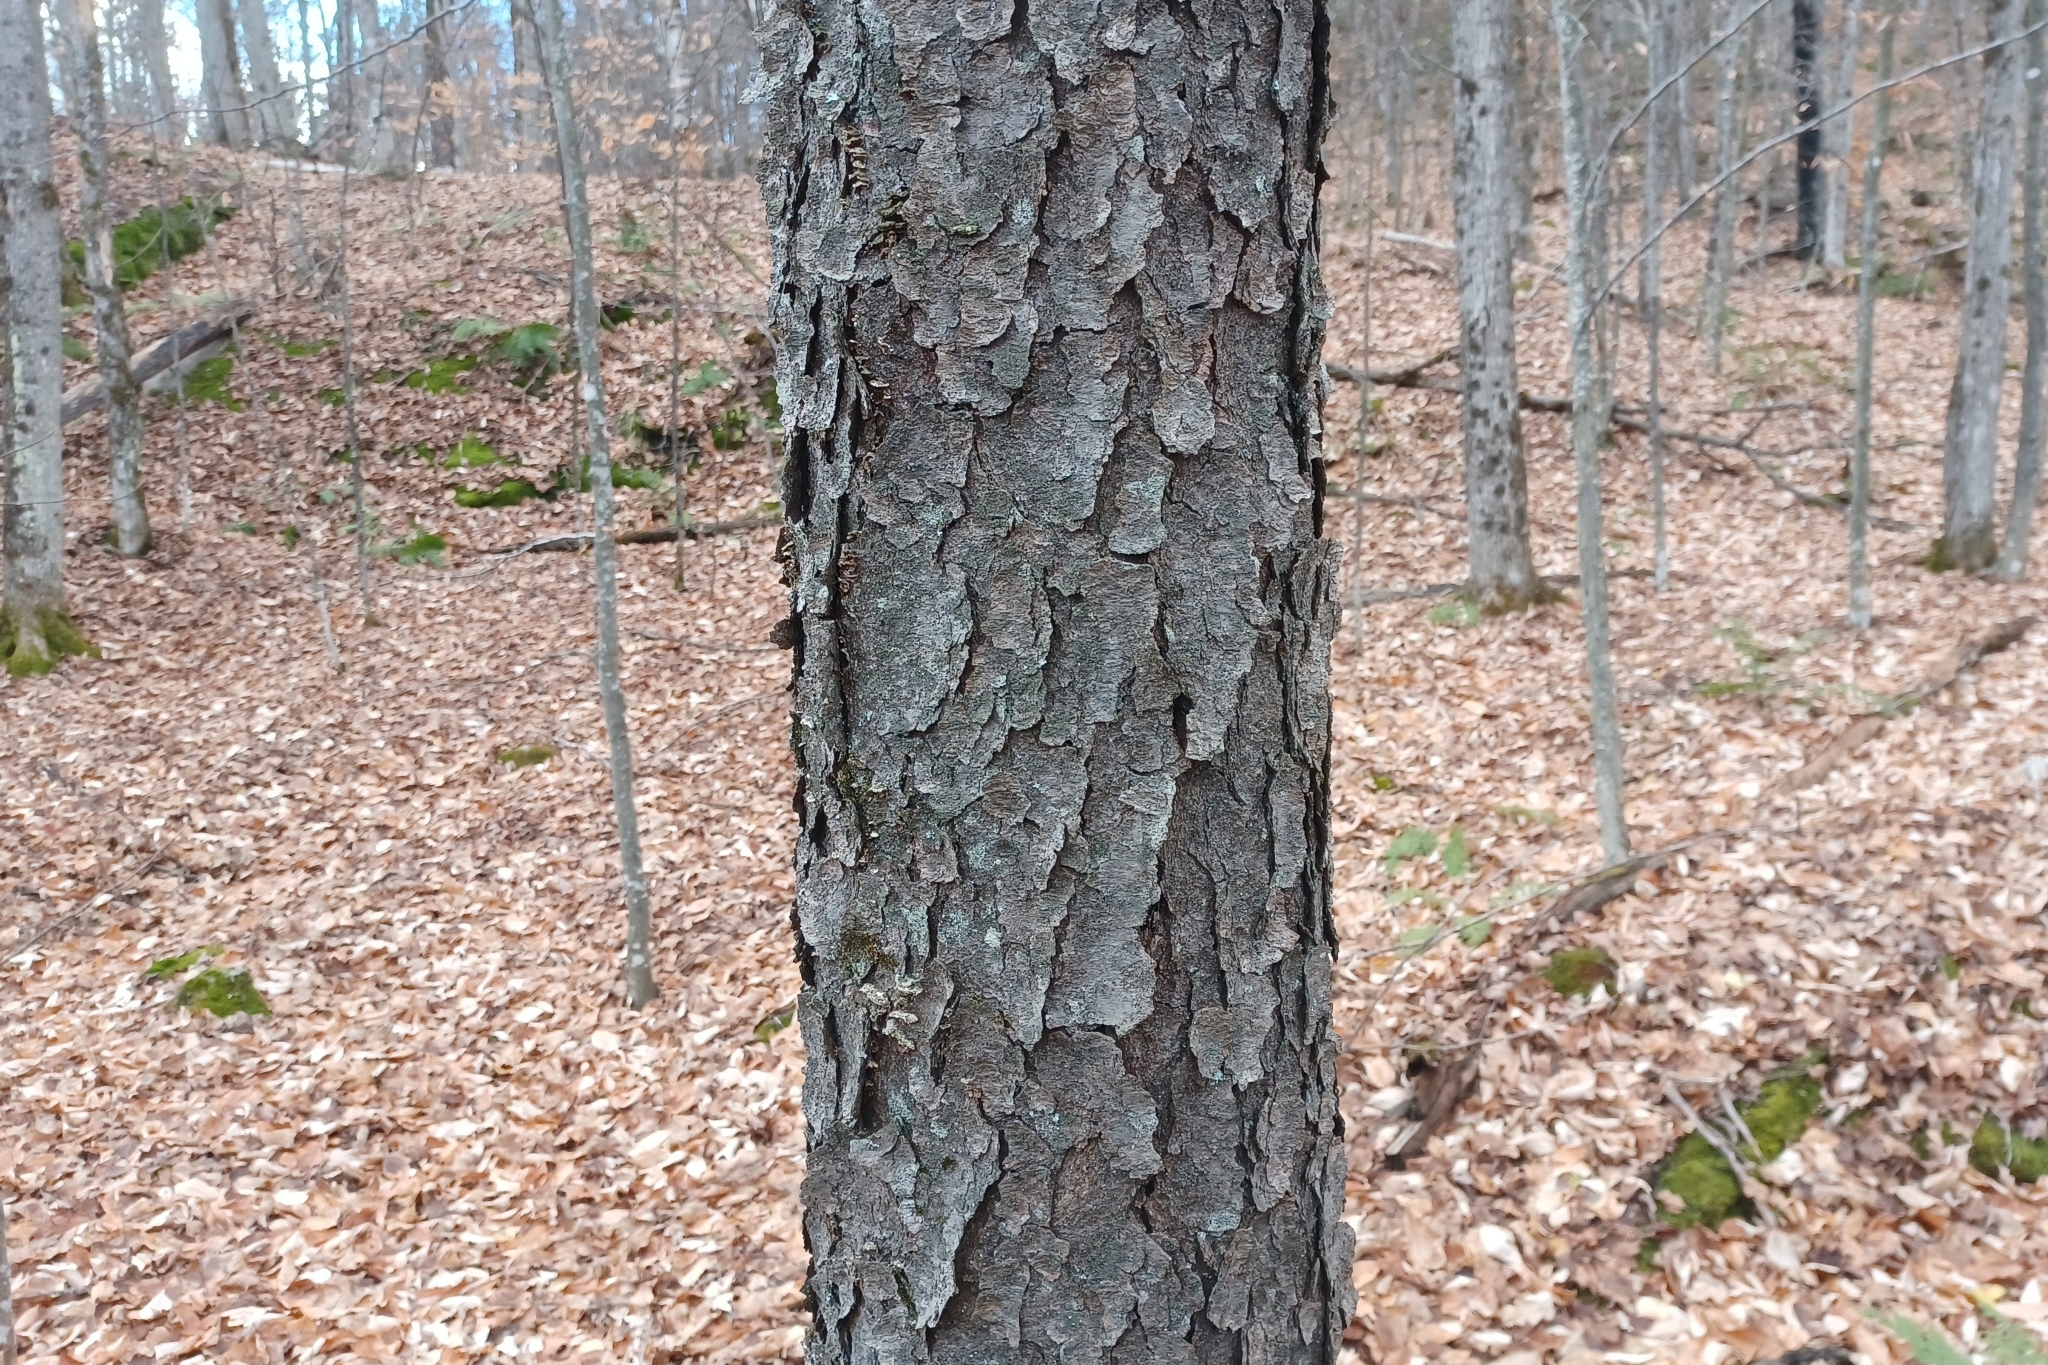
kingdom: Plantae
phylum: Tracheophyta
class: Magnoliopsida
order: Rosales
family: Rosaceae
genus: Prunus
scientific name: Prunus serotina
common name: Black cherry
